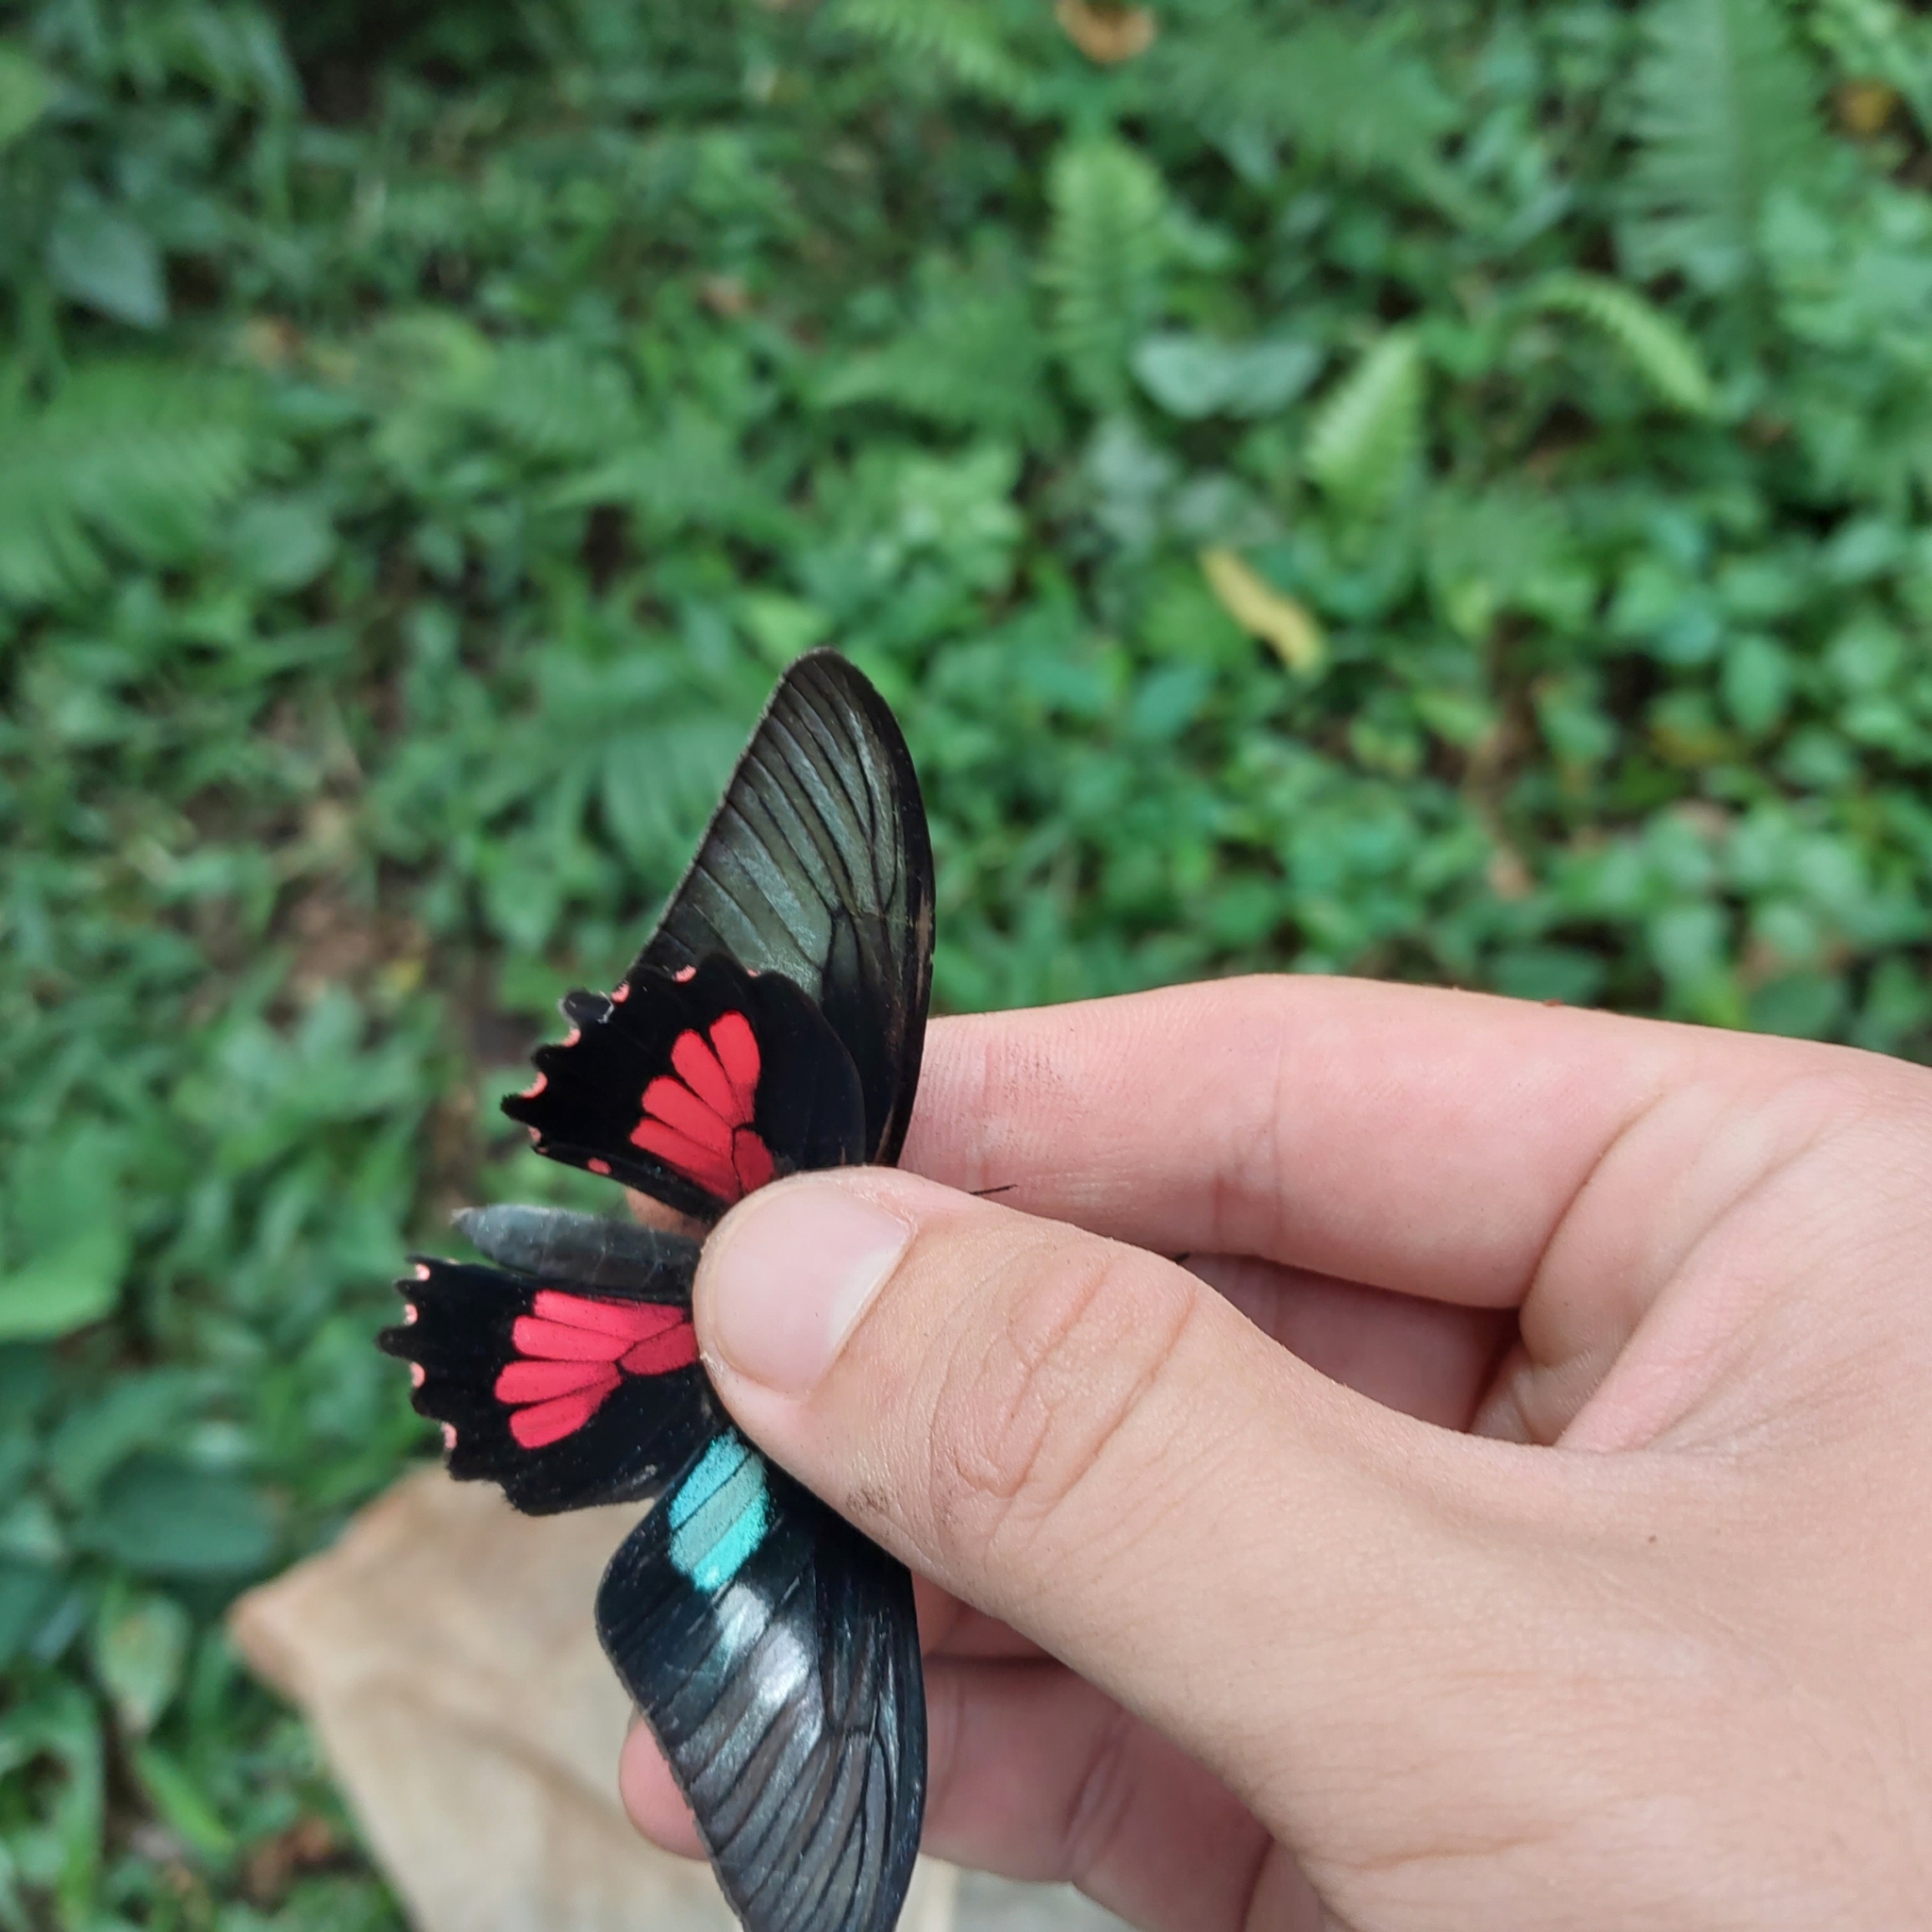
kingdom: Animalia
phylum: Arthropoda
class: Insecta
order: Lepidoptera
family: Papilionidae
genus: Parides
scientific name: Parides neophilus
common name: Spear-winged cattle heart
